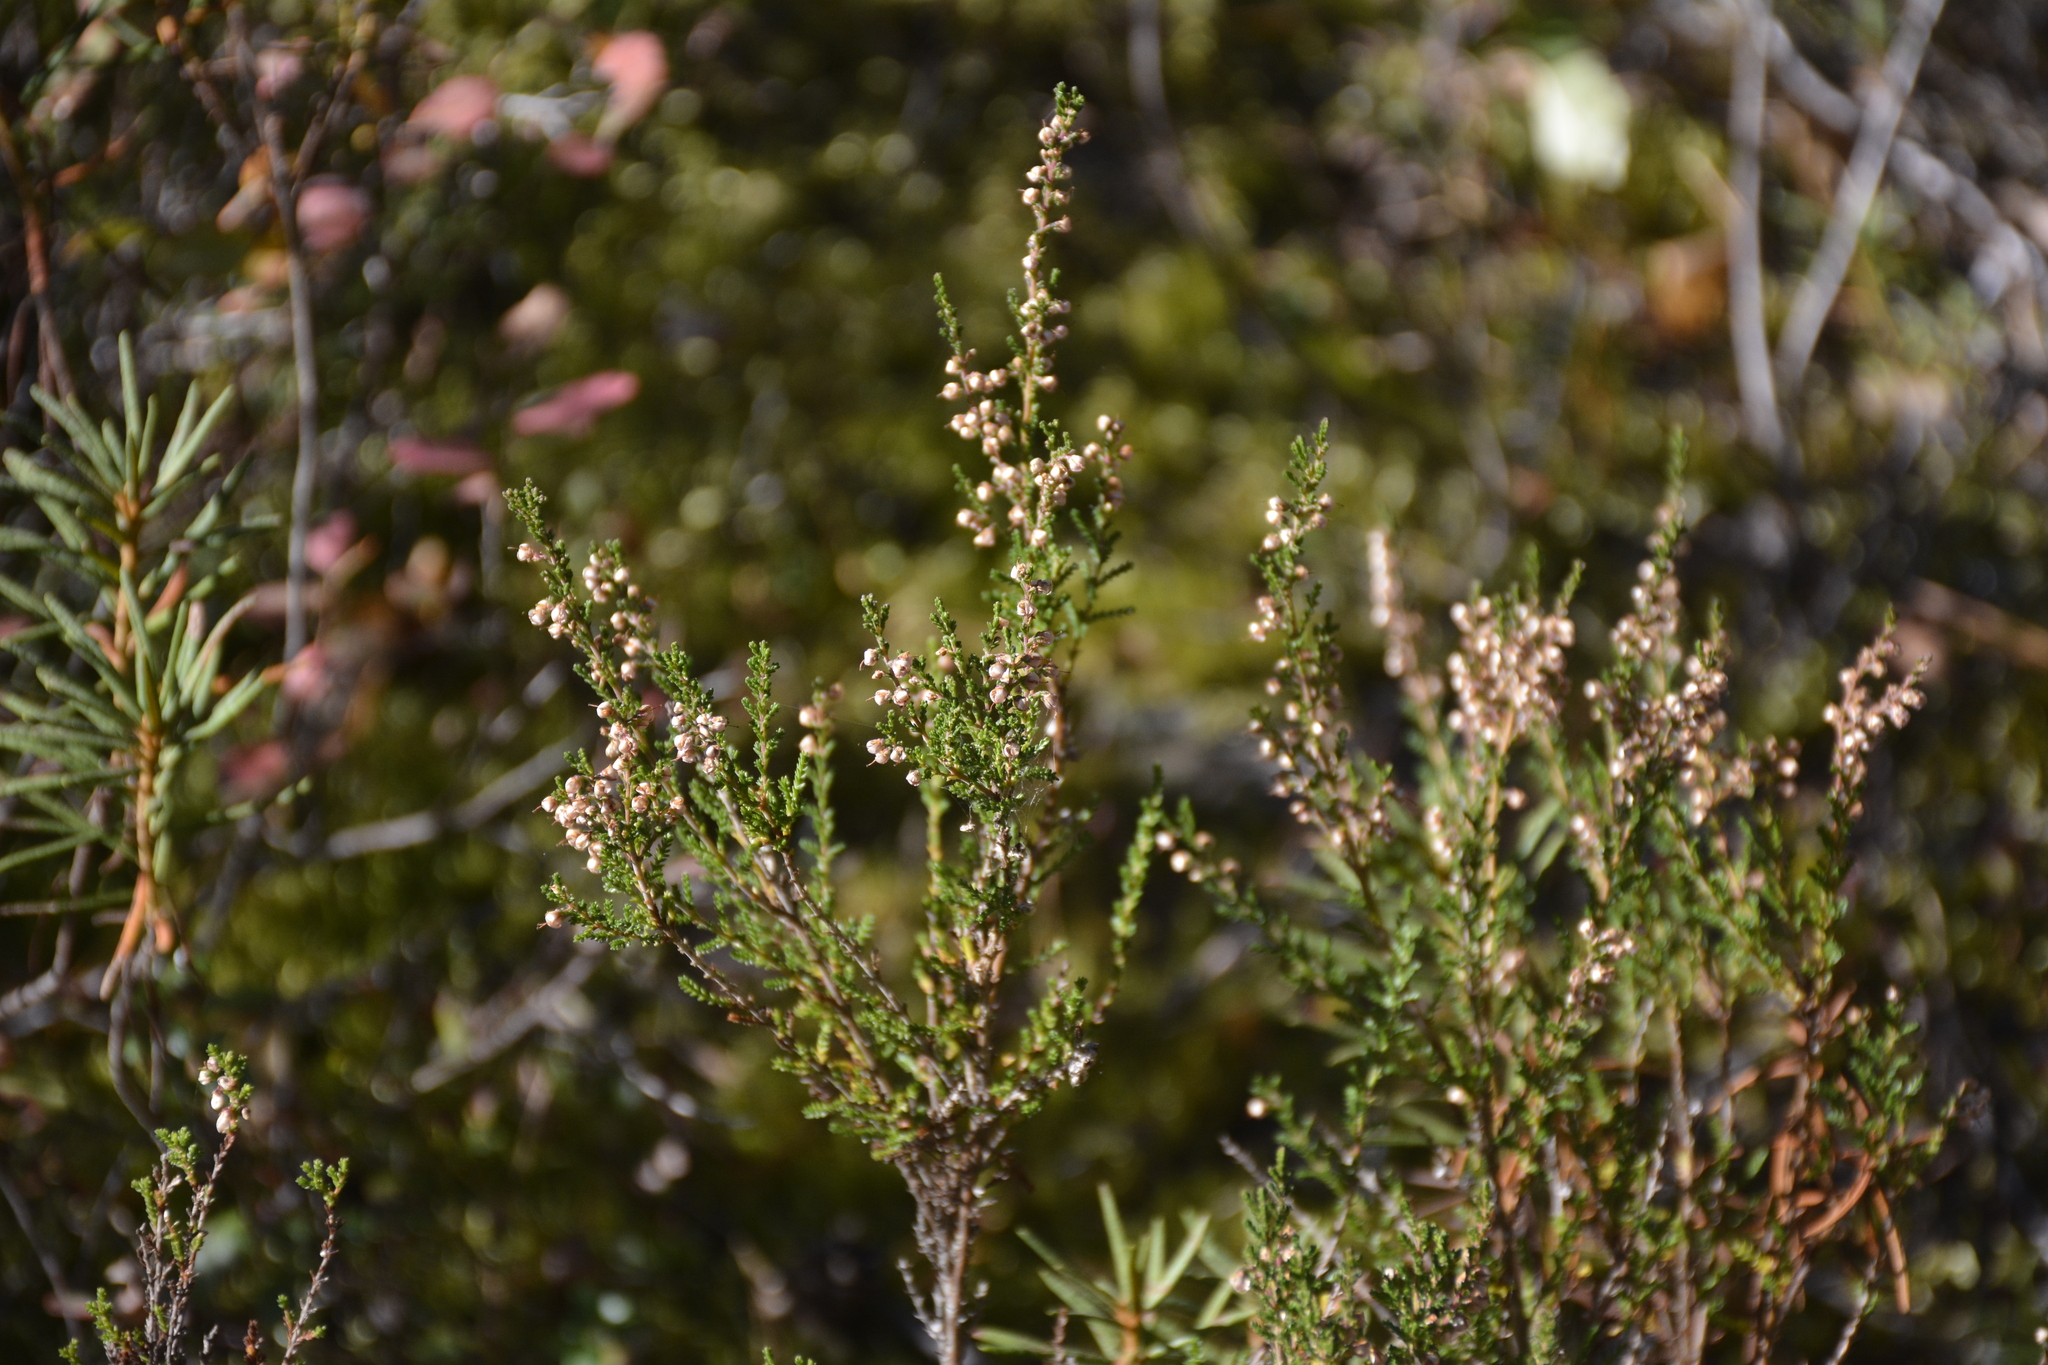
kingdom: Plantae
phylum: Tracheophyta
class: Magnoliopsida
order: Ericales
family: Ericaceae
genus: Calluna
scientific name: Calluna vulgaris
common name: Heather
